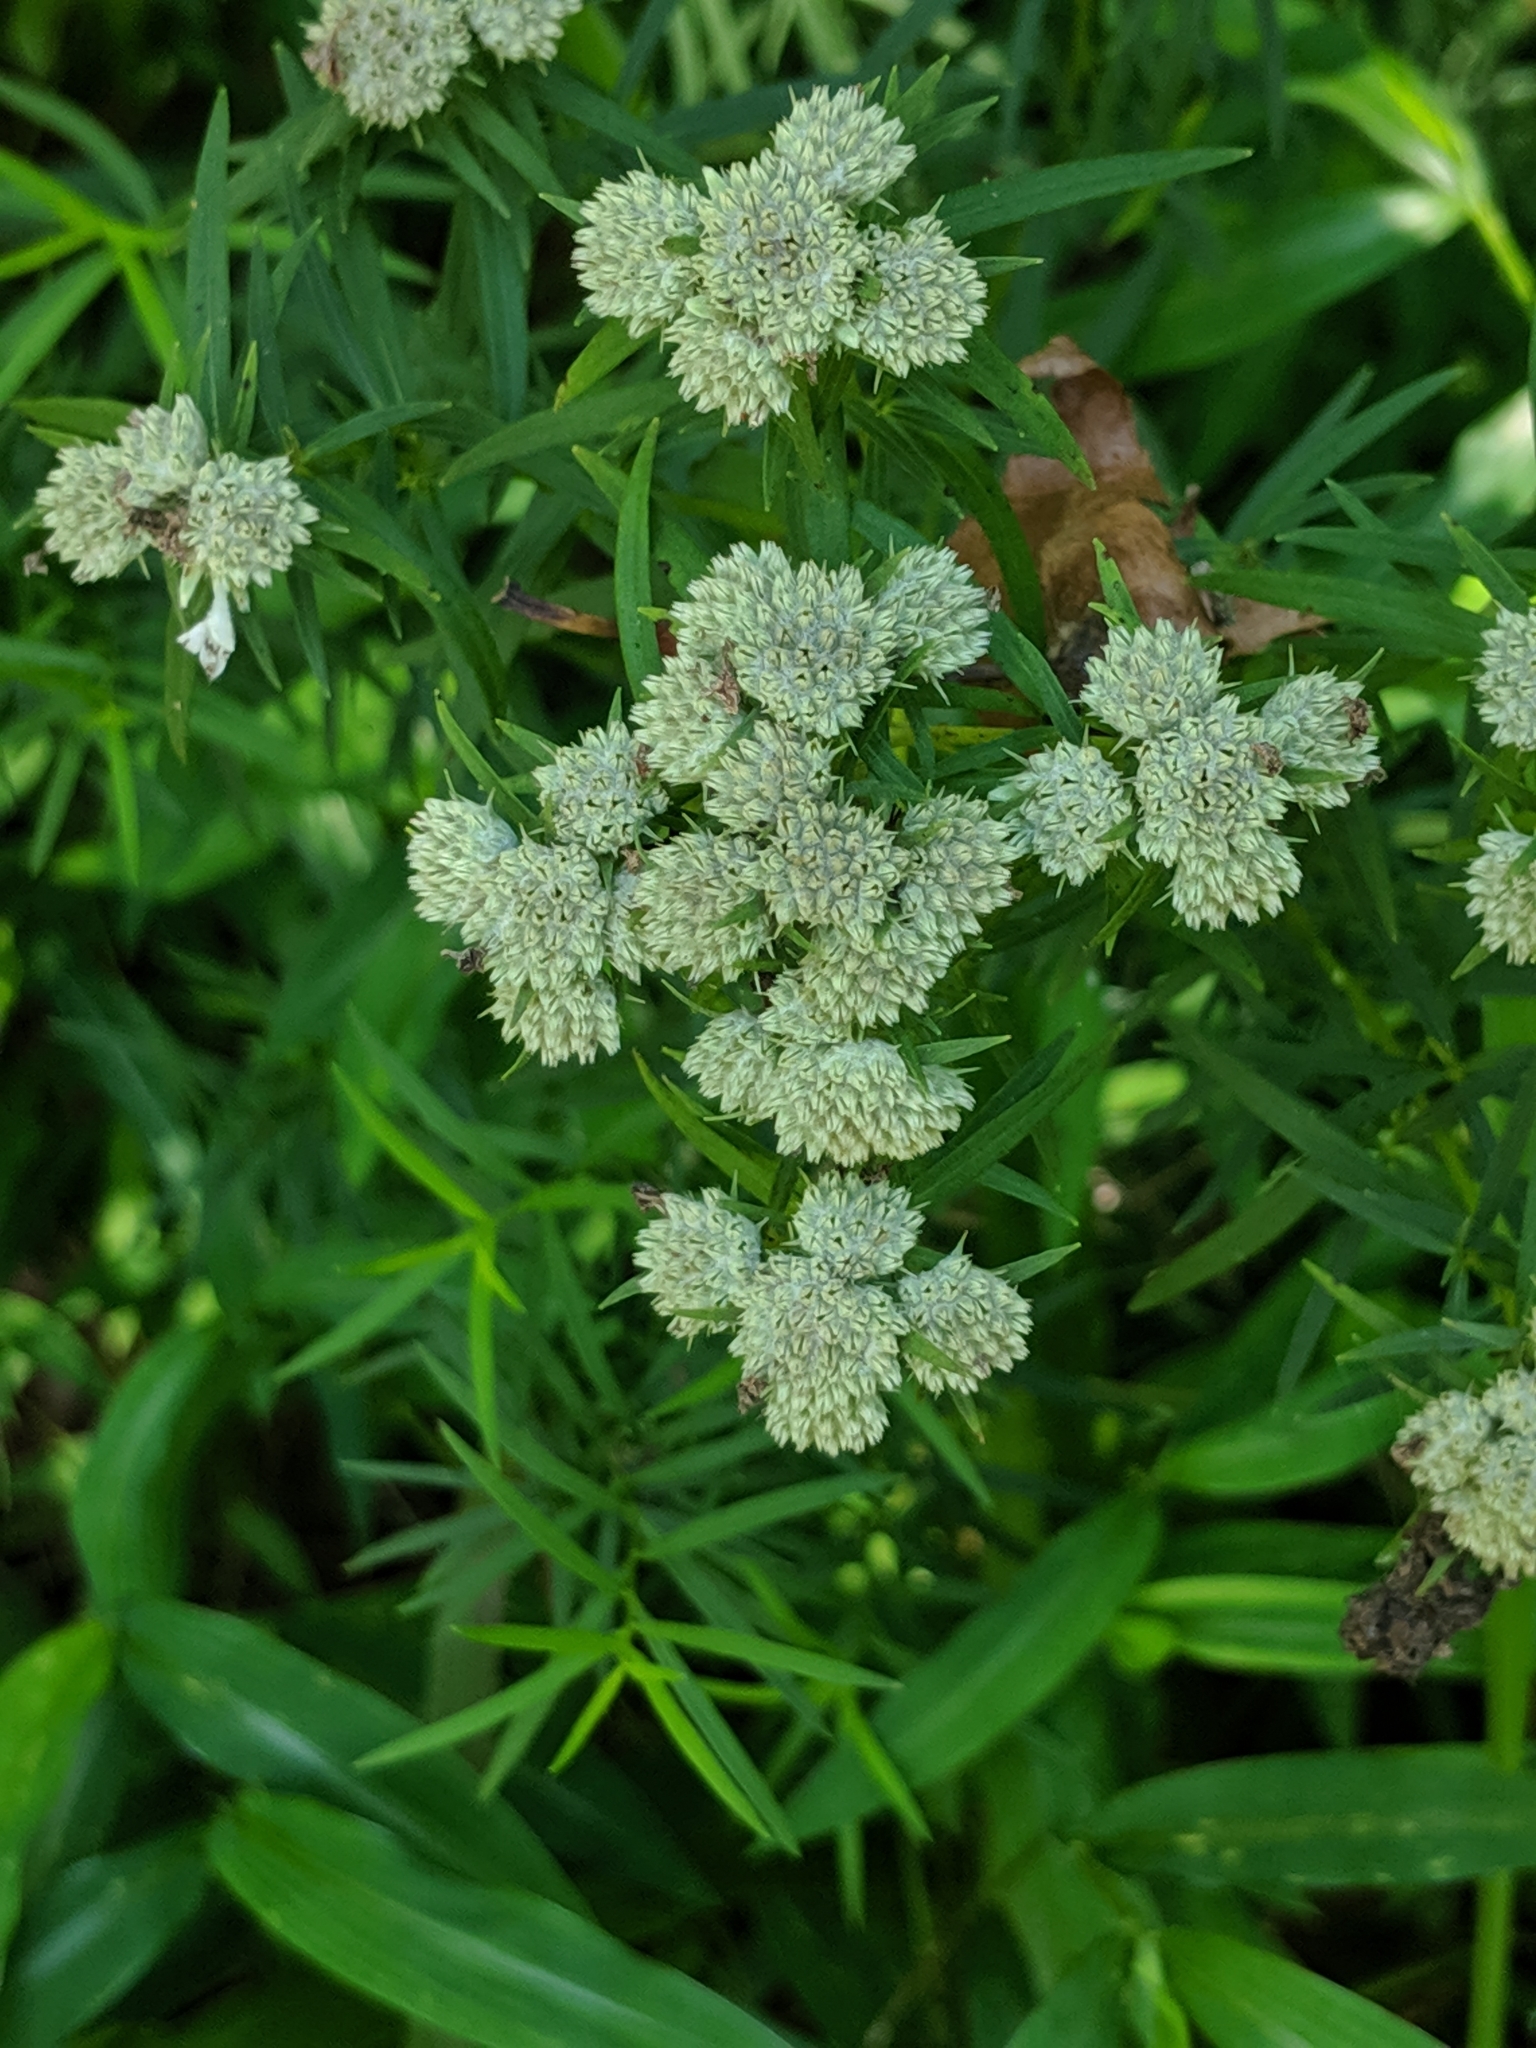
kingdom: Plantae
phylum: Tracheophyta
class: Magnoliopsida
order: Lamiales
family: Lamiaceae
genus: Pycnanthemum
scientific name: Pycnanthemum tenuifolium
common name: Narrow-leaf mountain-mint
